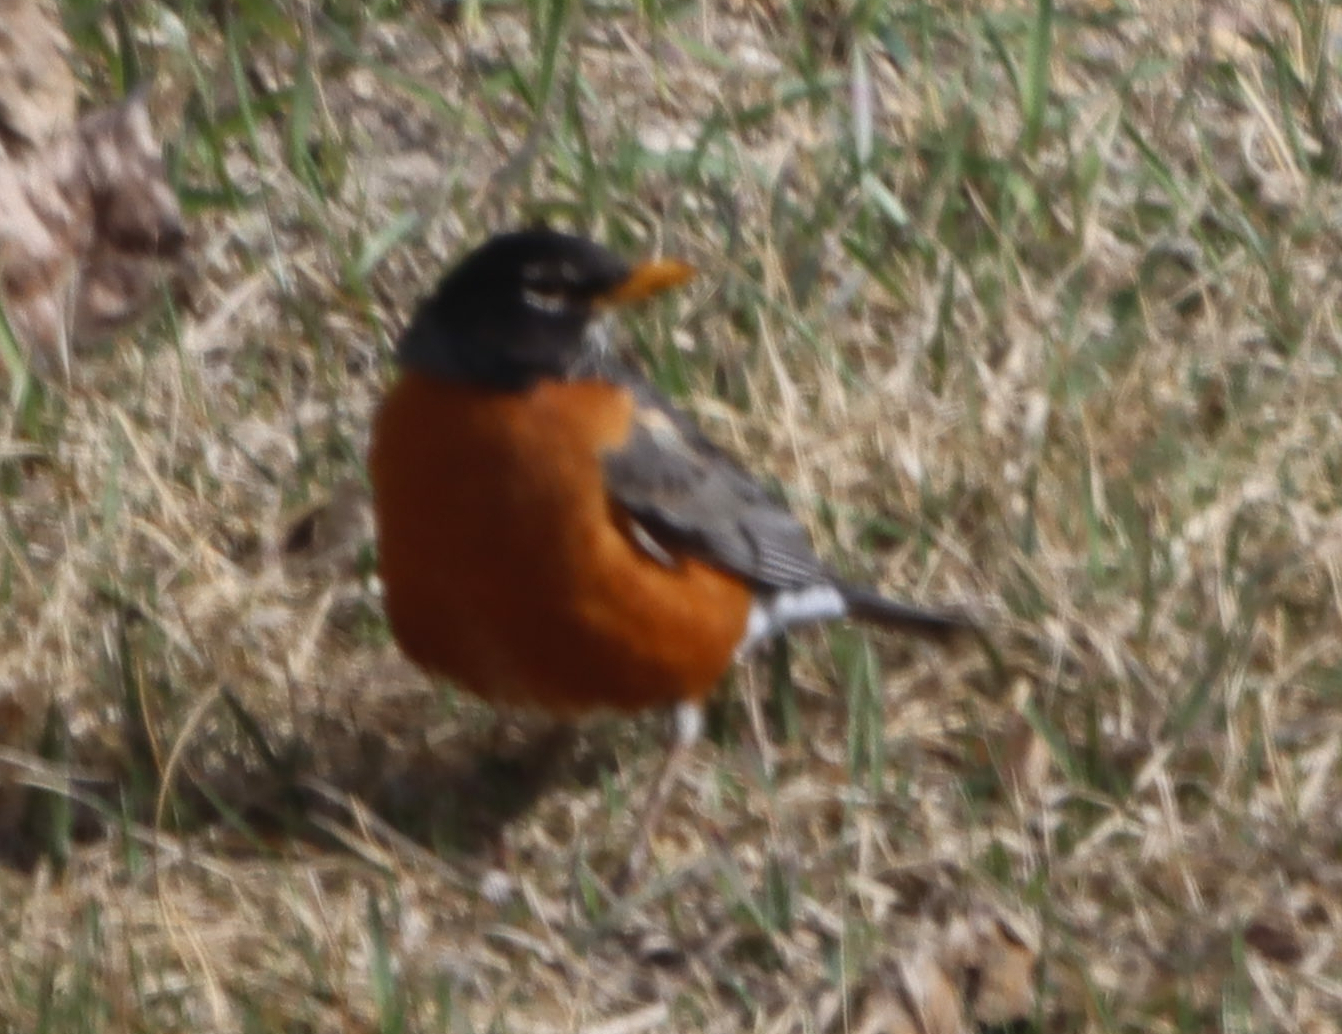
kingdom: Animalia
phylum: Chordata
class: Aves
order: Passeriformes
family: Turdidae
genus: Turdus
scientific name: Turdus migratorius
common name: American robin
